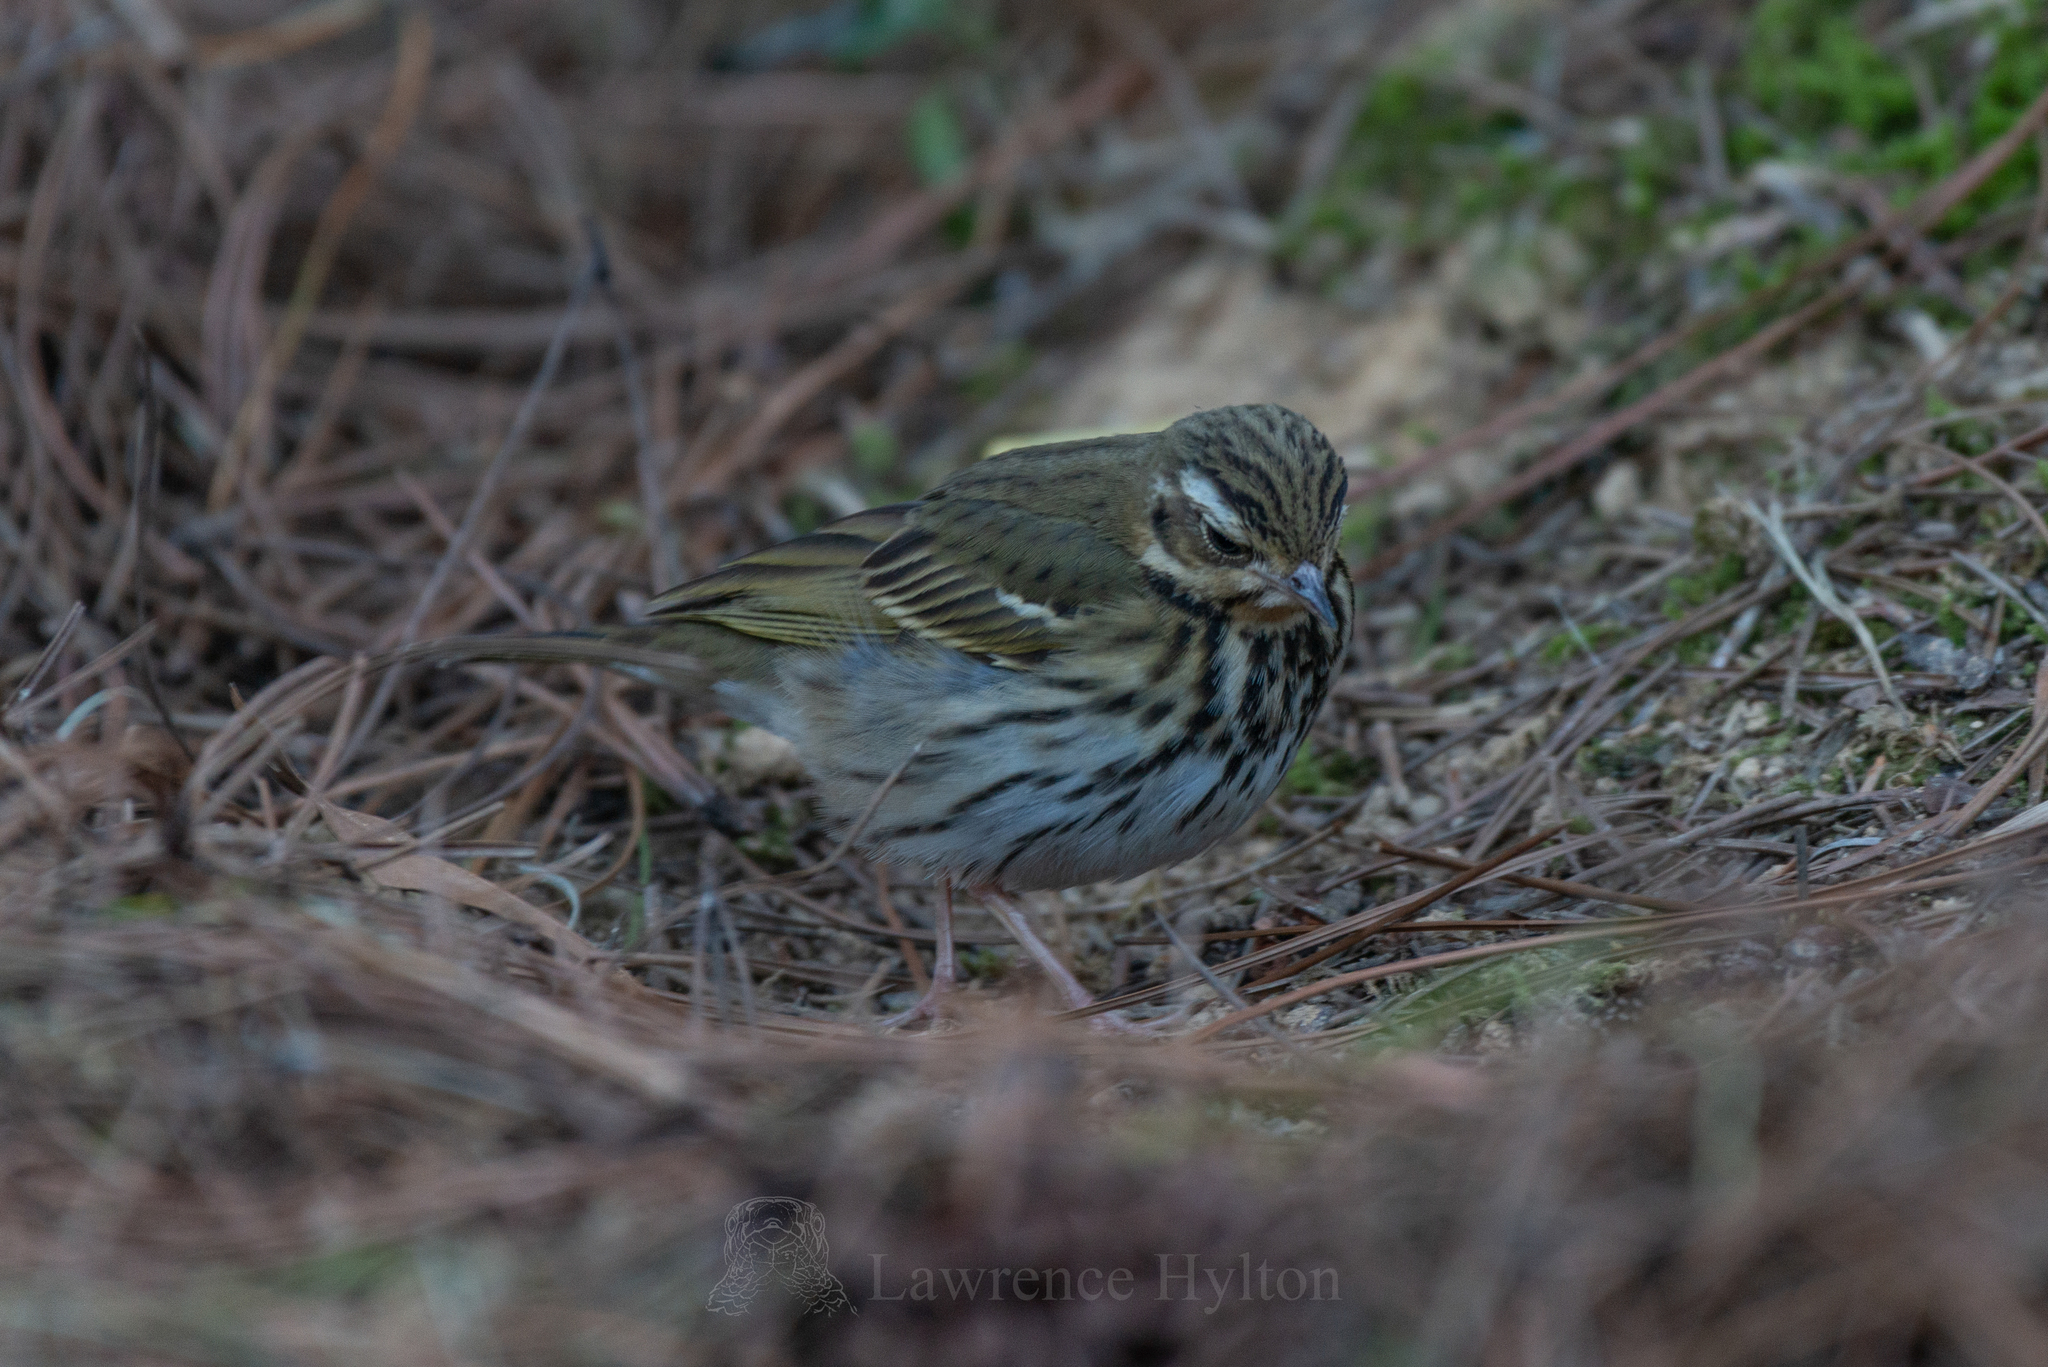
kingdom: Animalia
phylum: Chordata
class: Aves
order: Passeriformes
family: Motacillidae
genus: Anthus
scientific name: Anthus hodgsoni
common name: Olive-backed pipit
